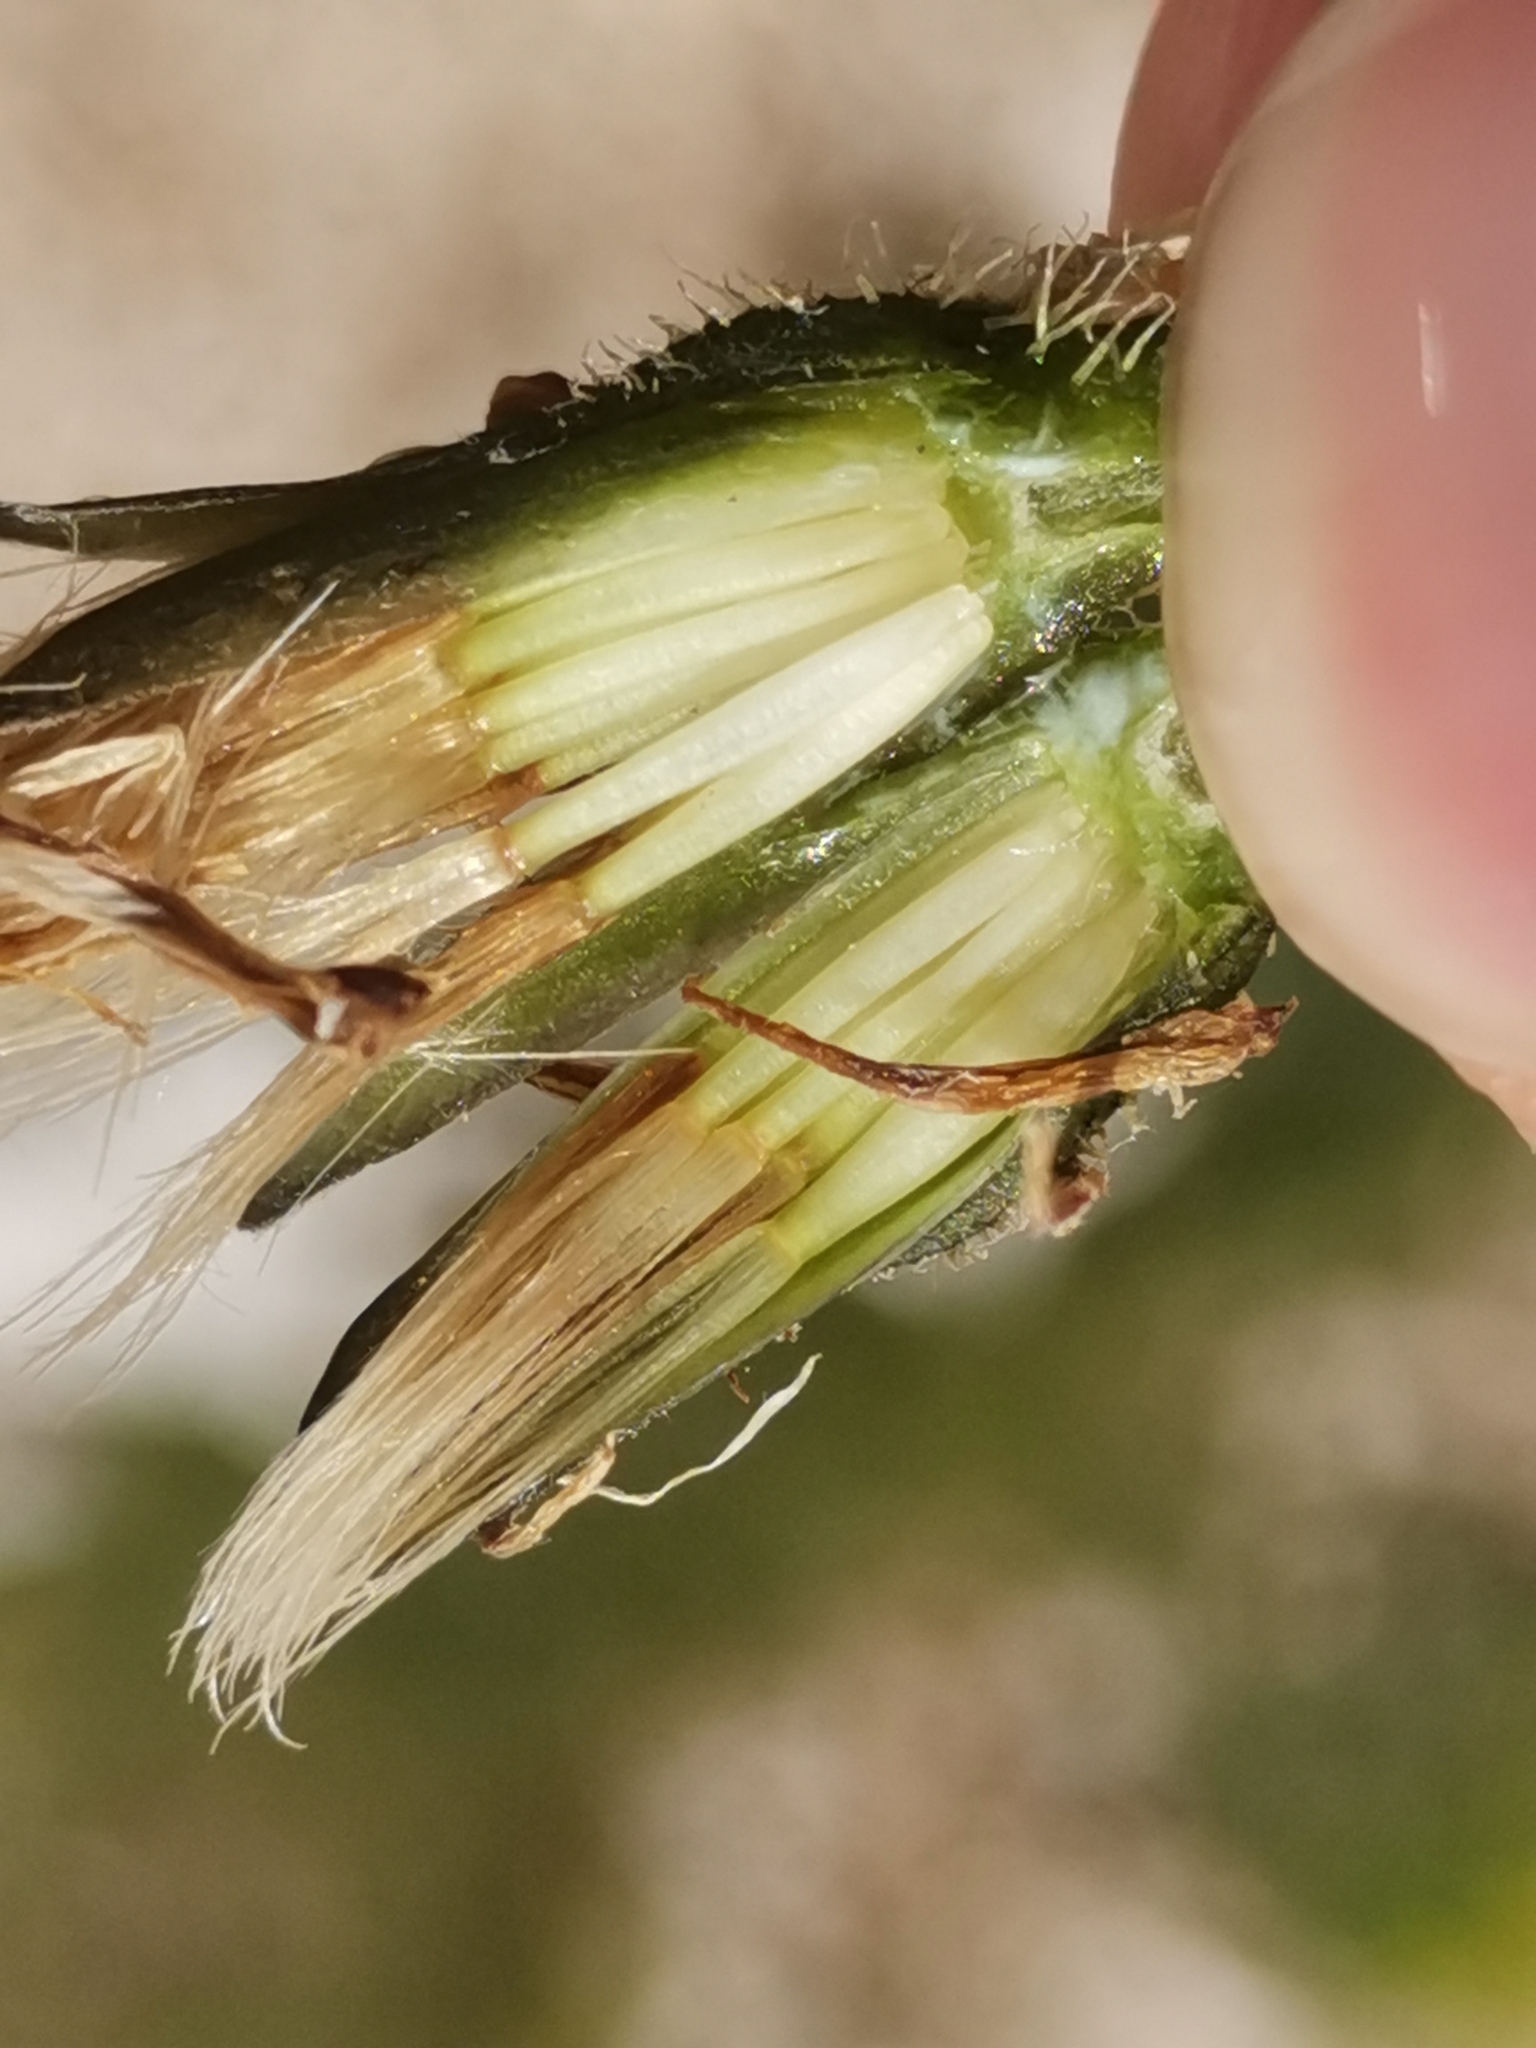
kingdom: Plantae
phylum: Tracheophyta
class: Magnoliopsida
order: Asterales
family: Asteraceae
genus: Scorzoneroides
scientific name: Scorzoneroides helvetica
